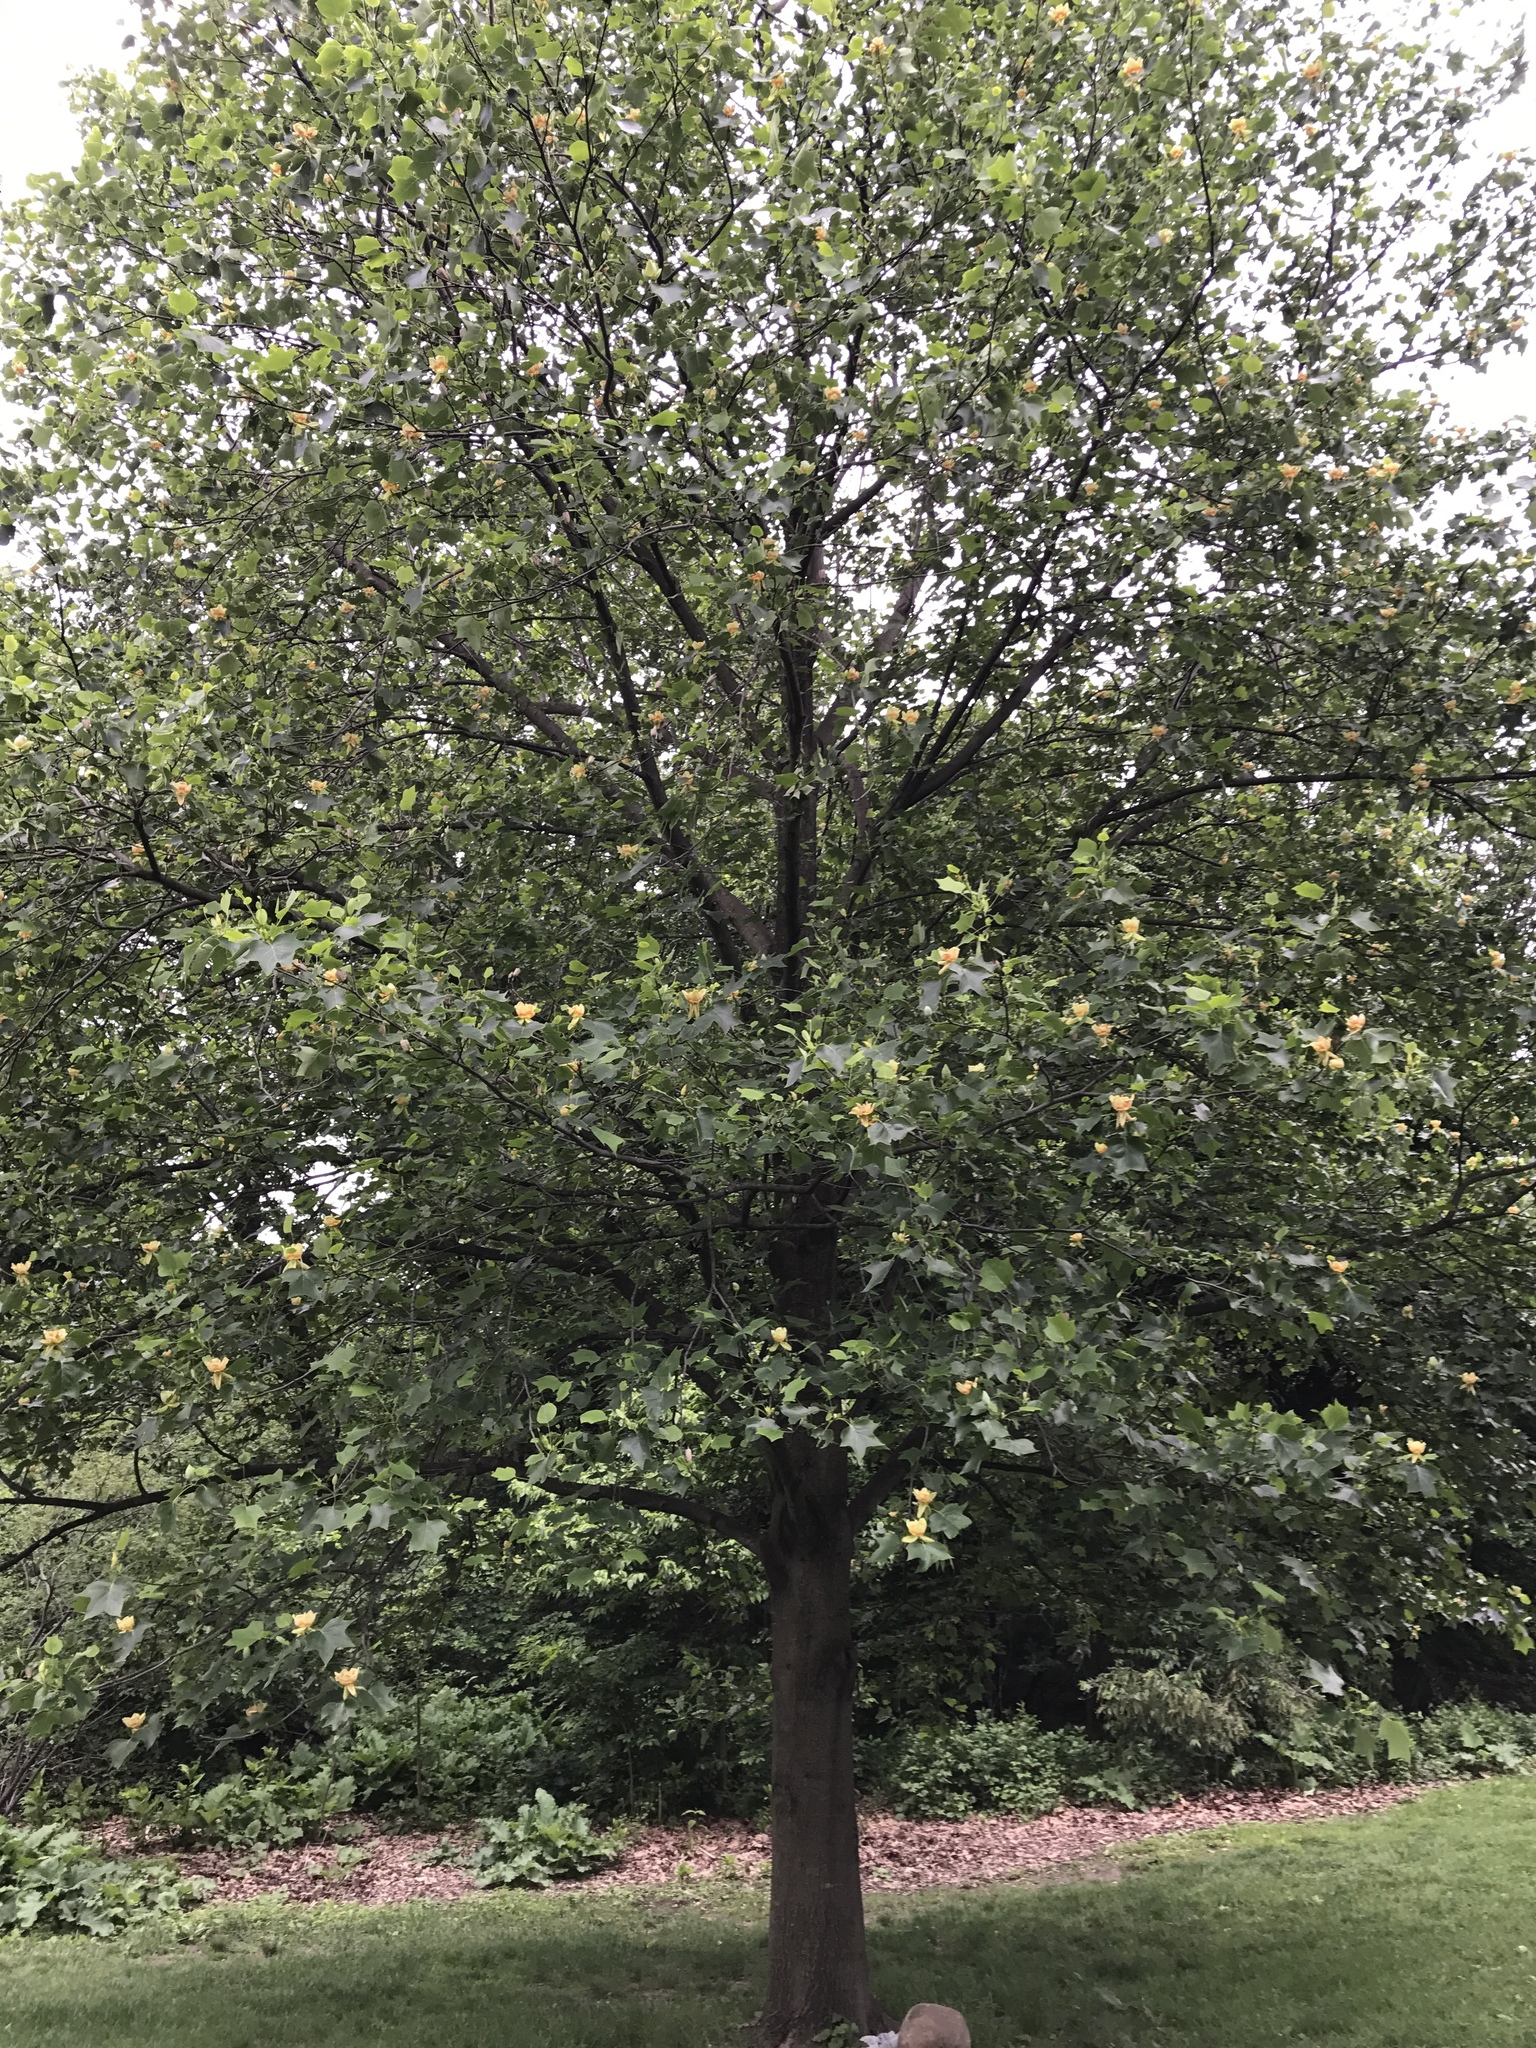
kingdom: Plantae
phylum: Tracheophyta
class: Magnoliopsida
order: Magnoliales
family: Magnoliaceae
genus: Liriodendron
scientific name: Liriodendron tulipifera
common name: Tulip tree
